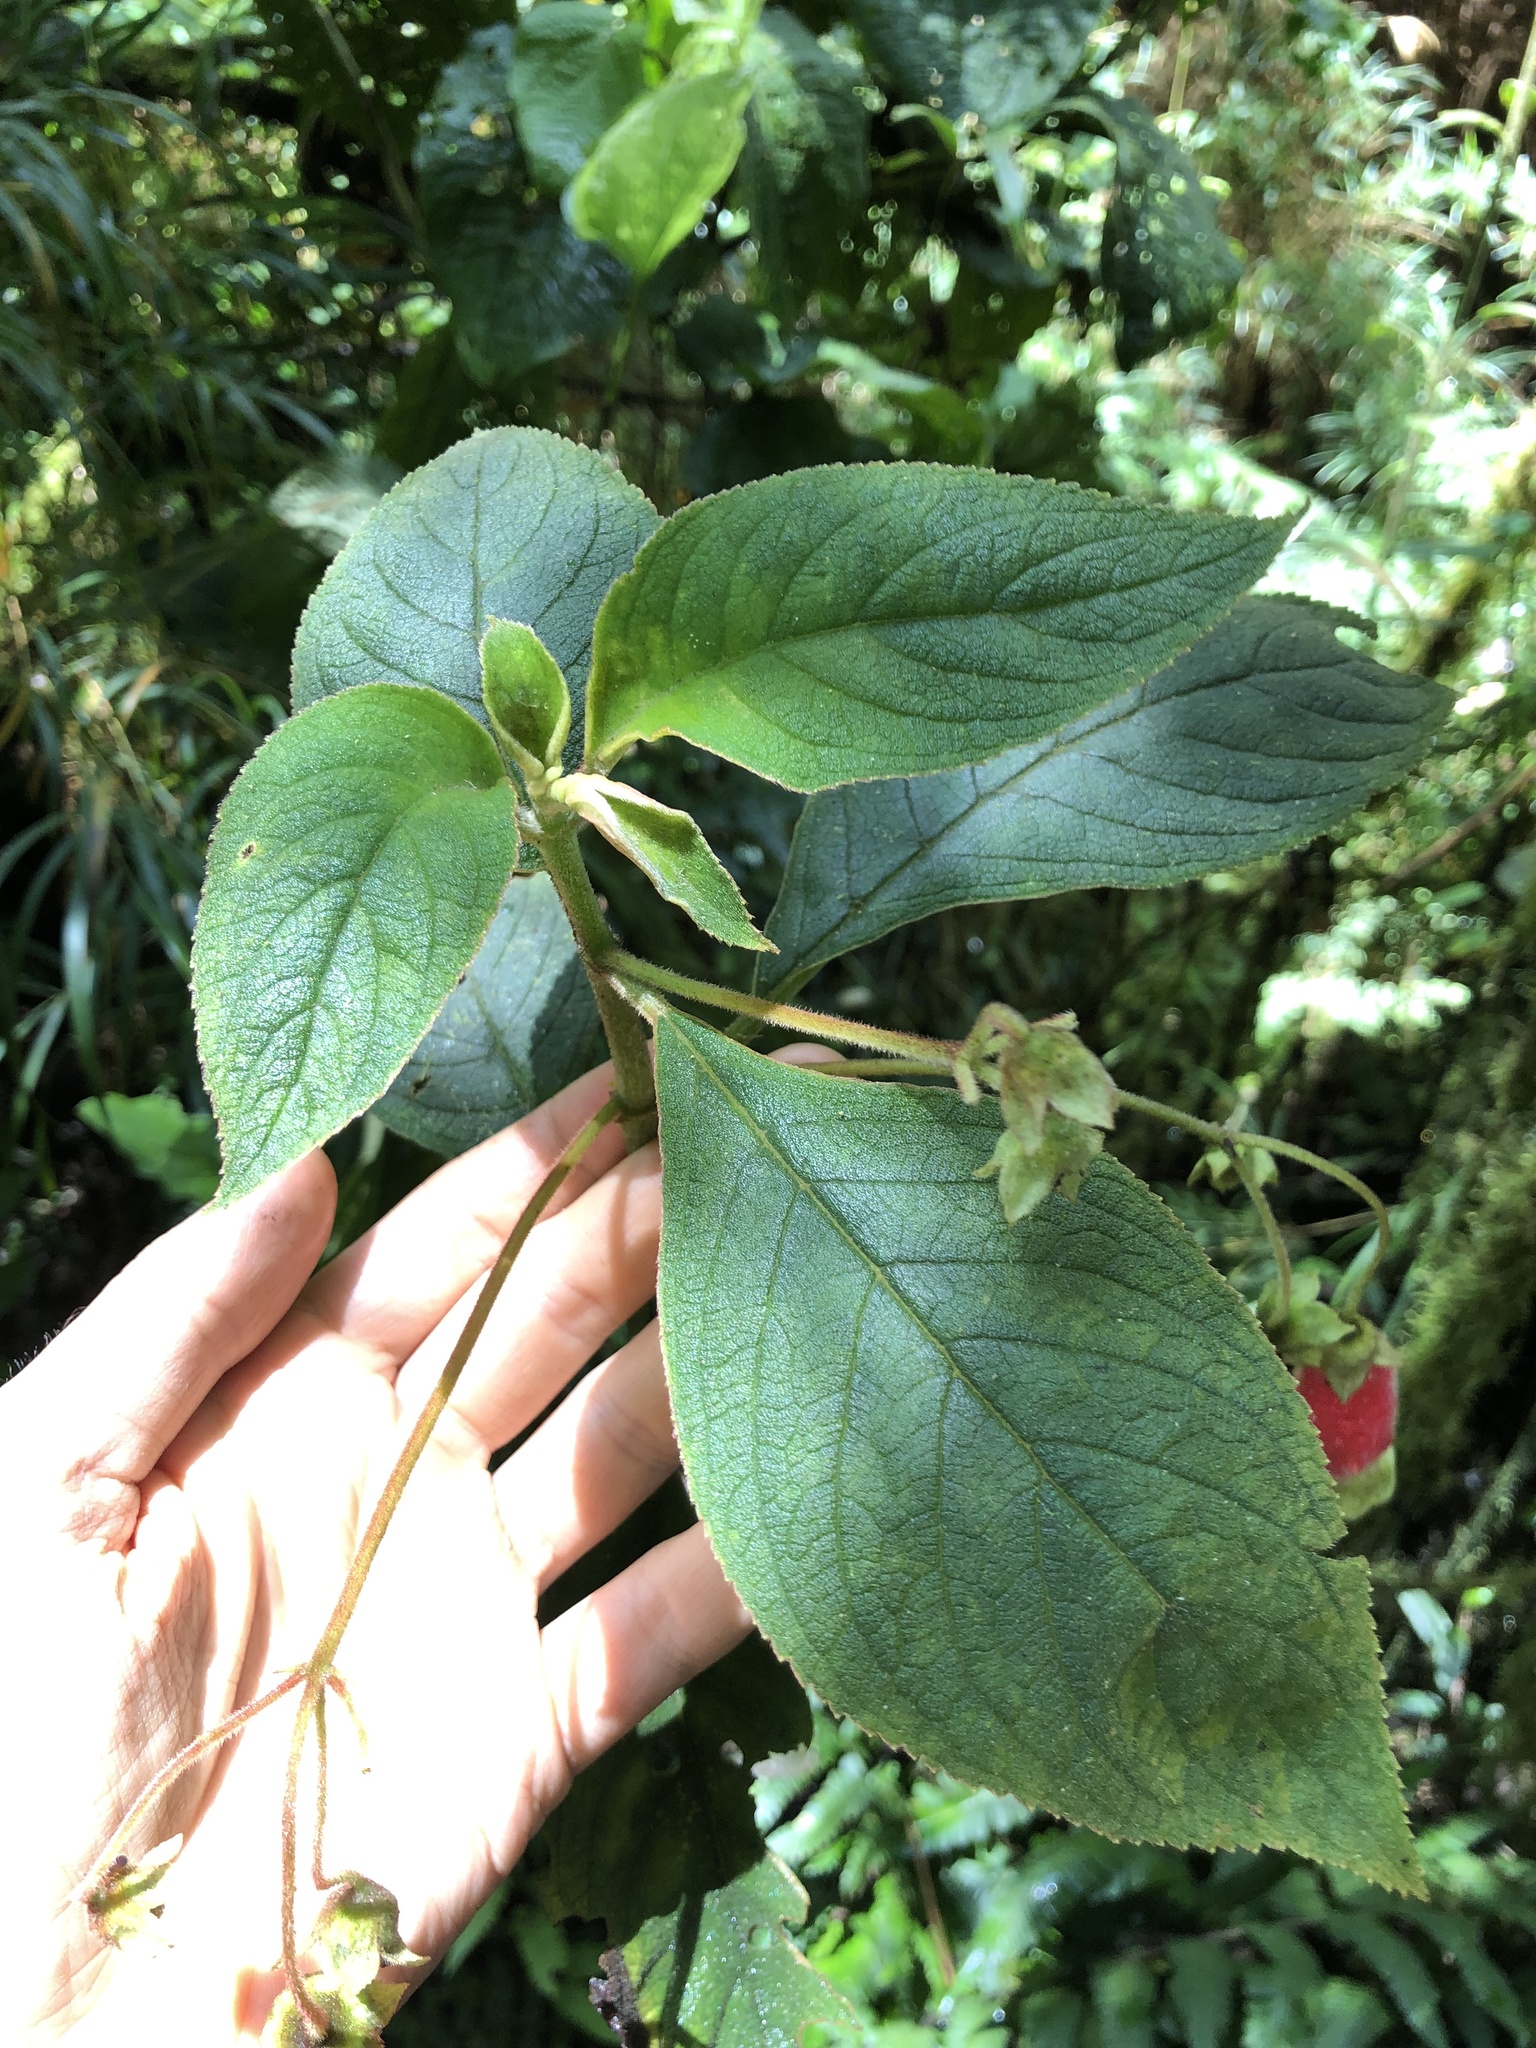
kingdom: Plantae
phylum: Tracheophyta
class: Magnoliopsida
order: Lamiales
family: Gesneriaceae
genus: Kohleria
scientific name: Kohleria affinis
